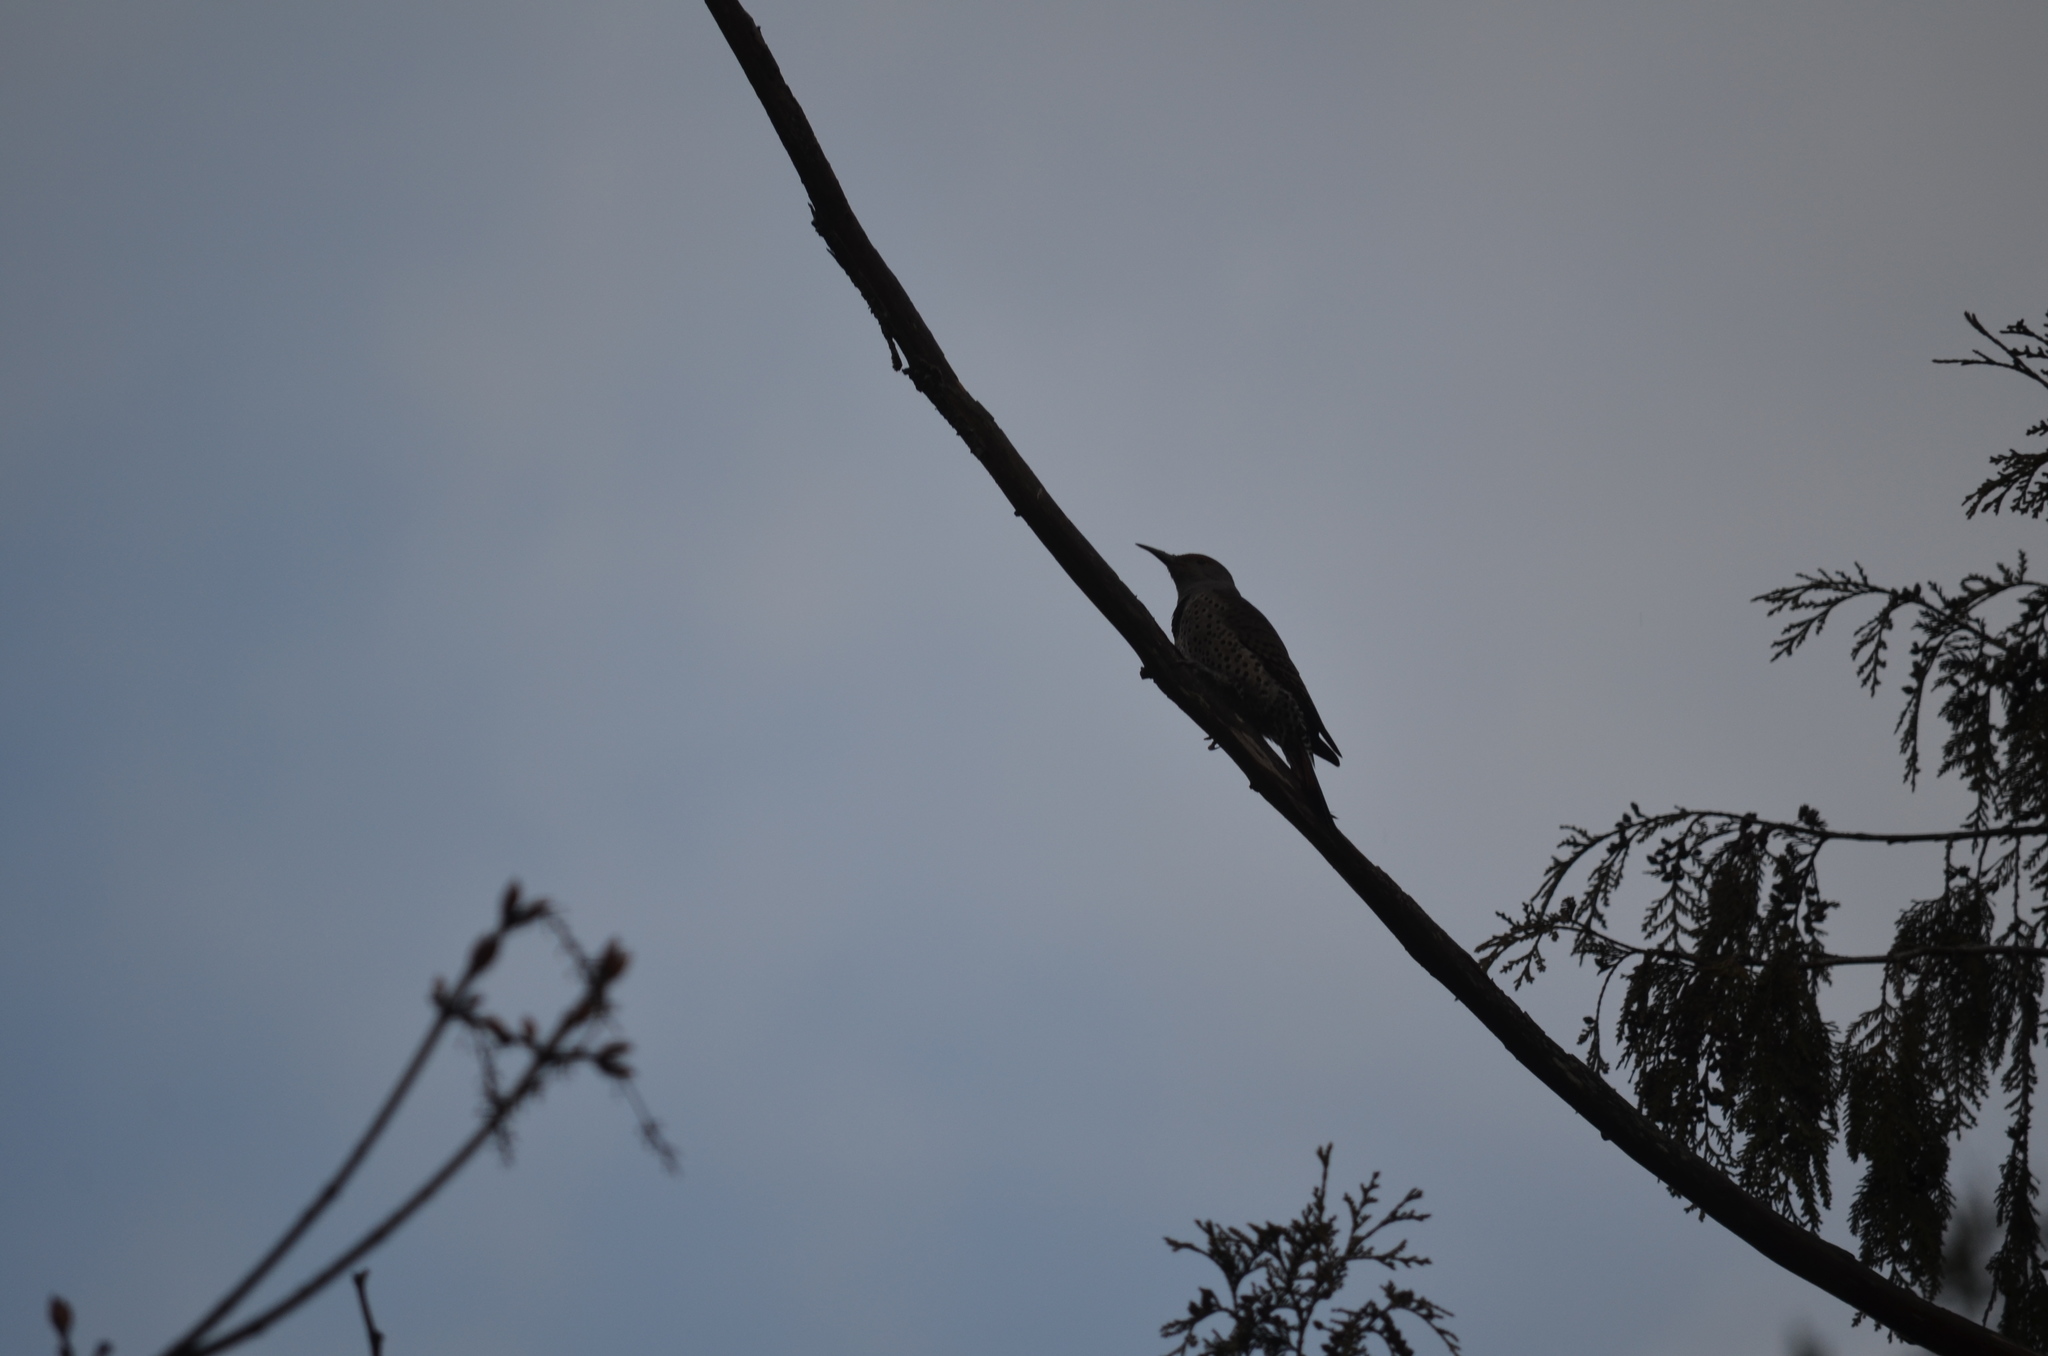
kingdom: Animalia
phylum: Chordata
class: Aves
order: Piciformes
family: Picidae
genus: Colaptes
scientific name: Colaptes auratus
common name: Northern flicker
